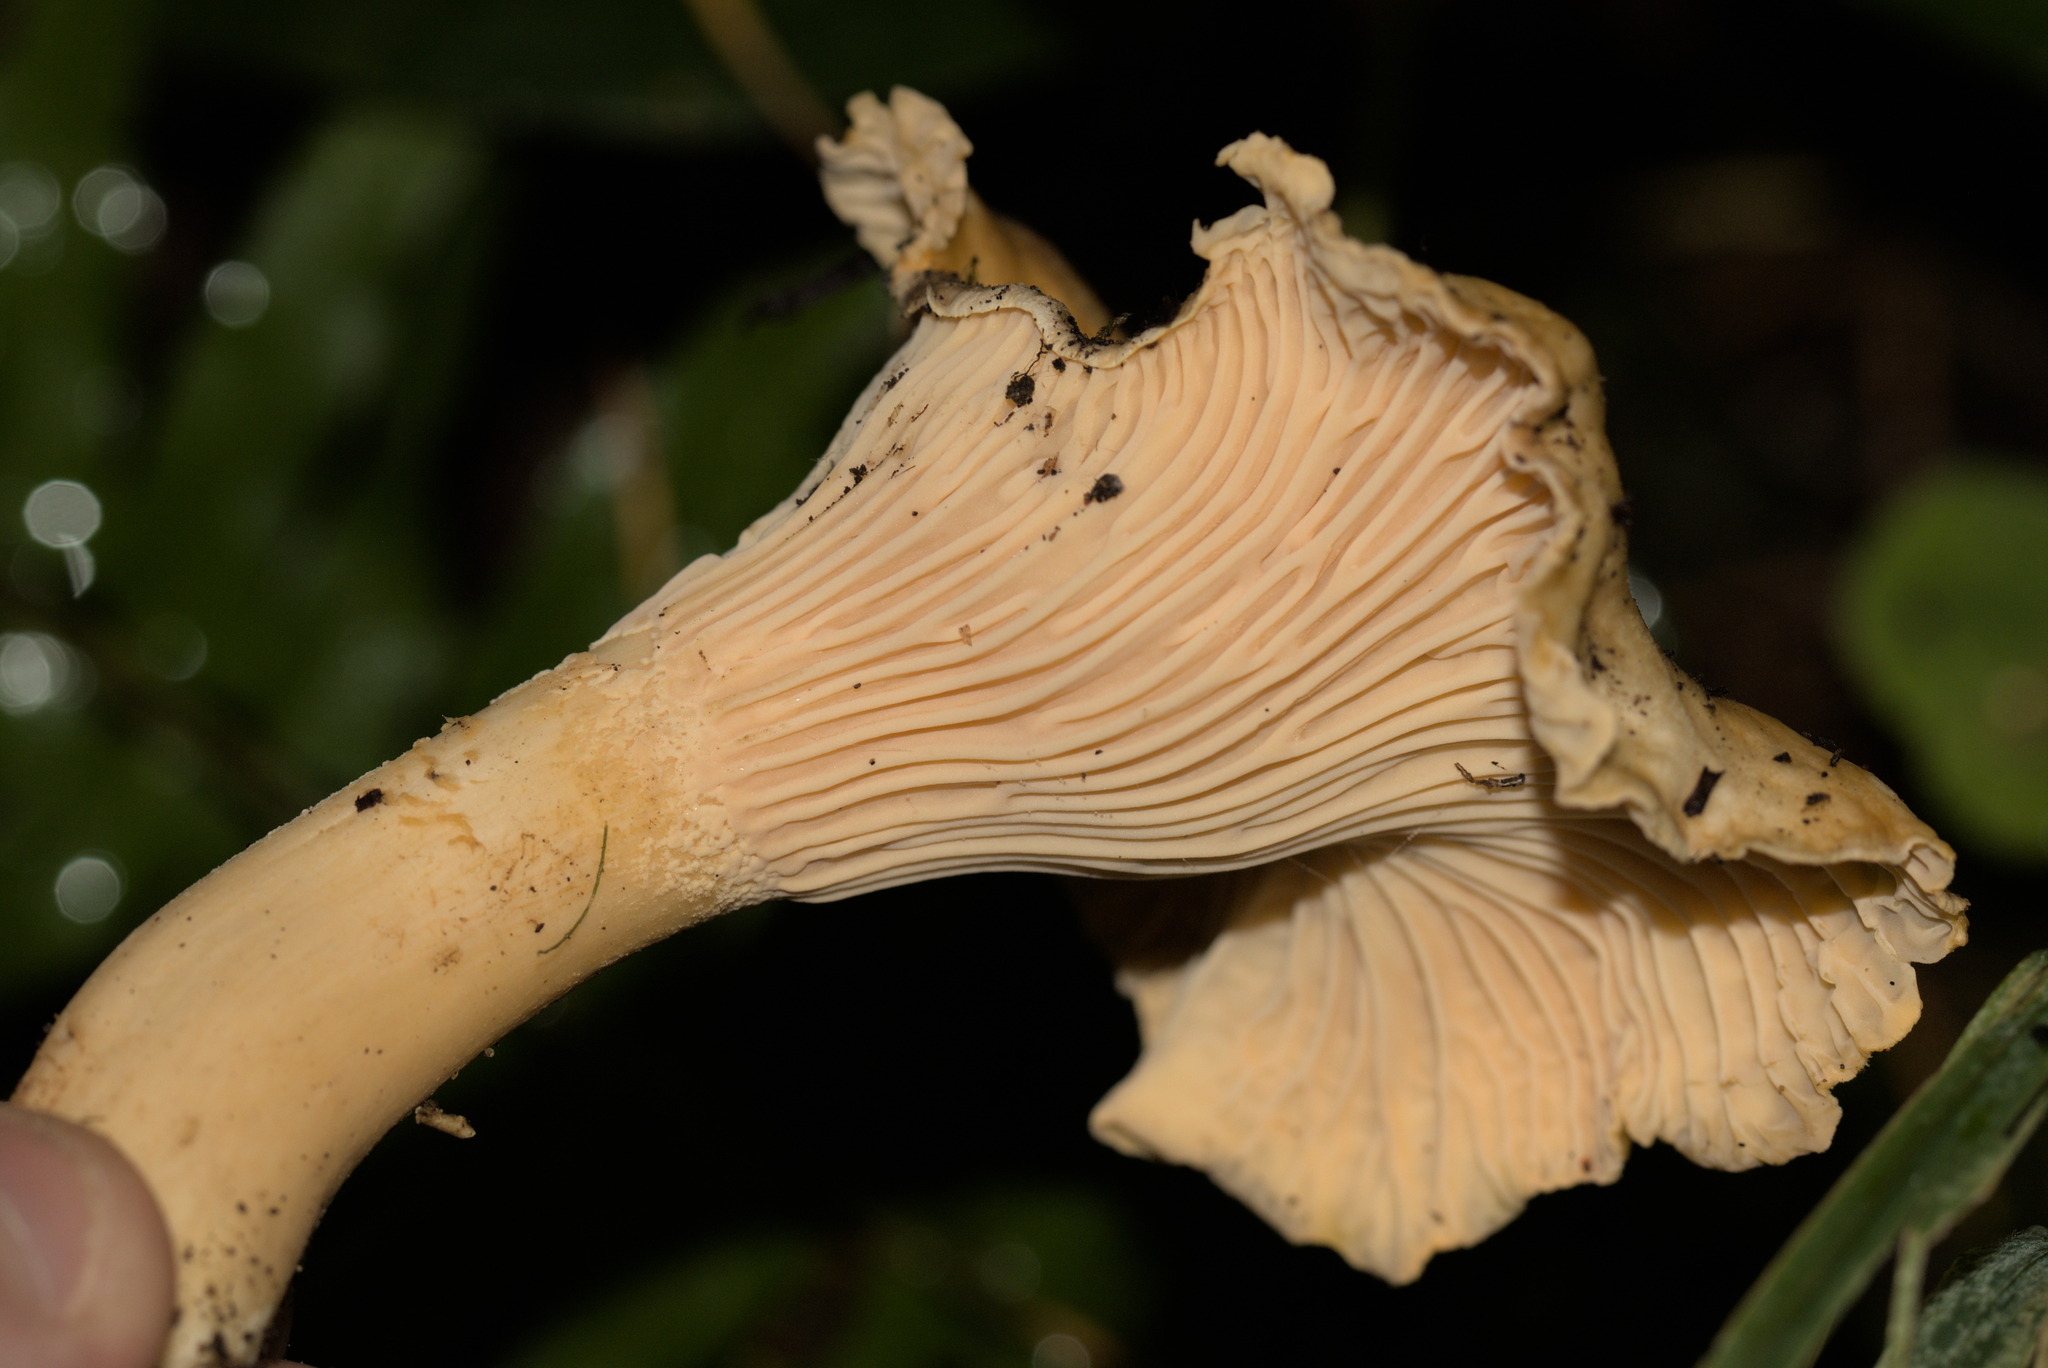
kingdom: Fungi
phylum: Basidiomycota
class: Agaricomycetes
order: Cantharellales
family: Hydnaceae
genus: Cantharellus
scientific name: Cantharellus formosus
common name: Pacific golden chanterelle
